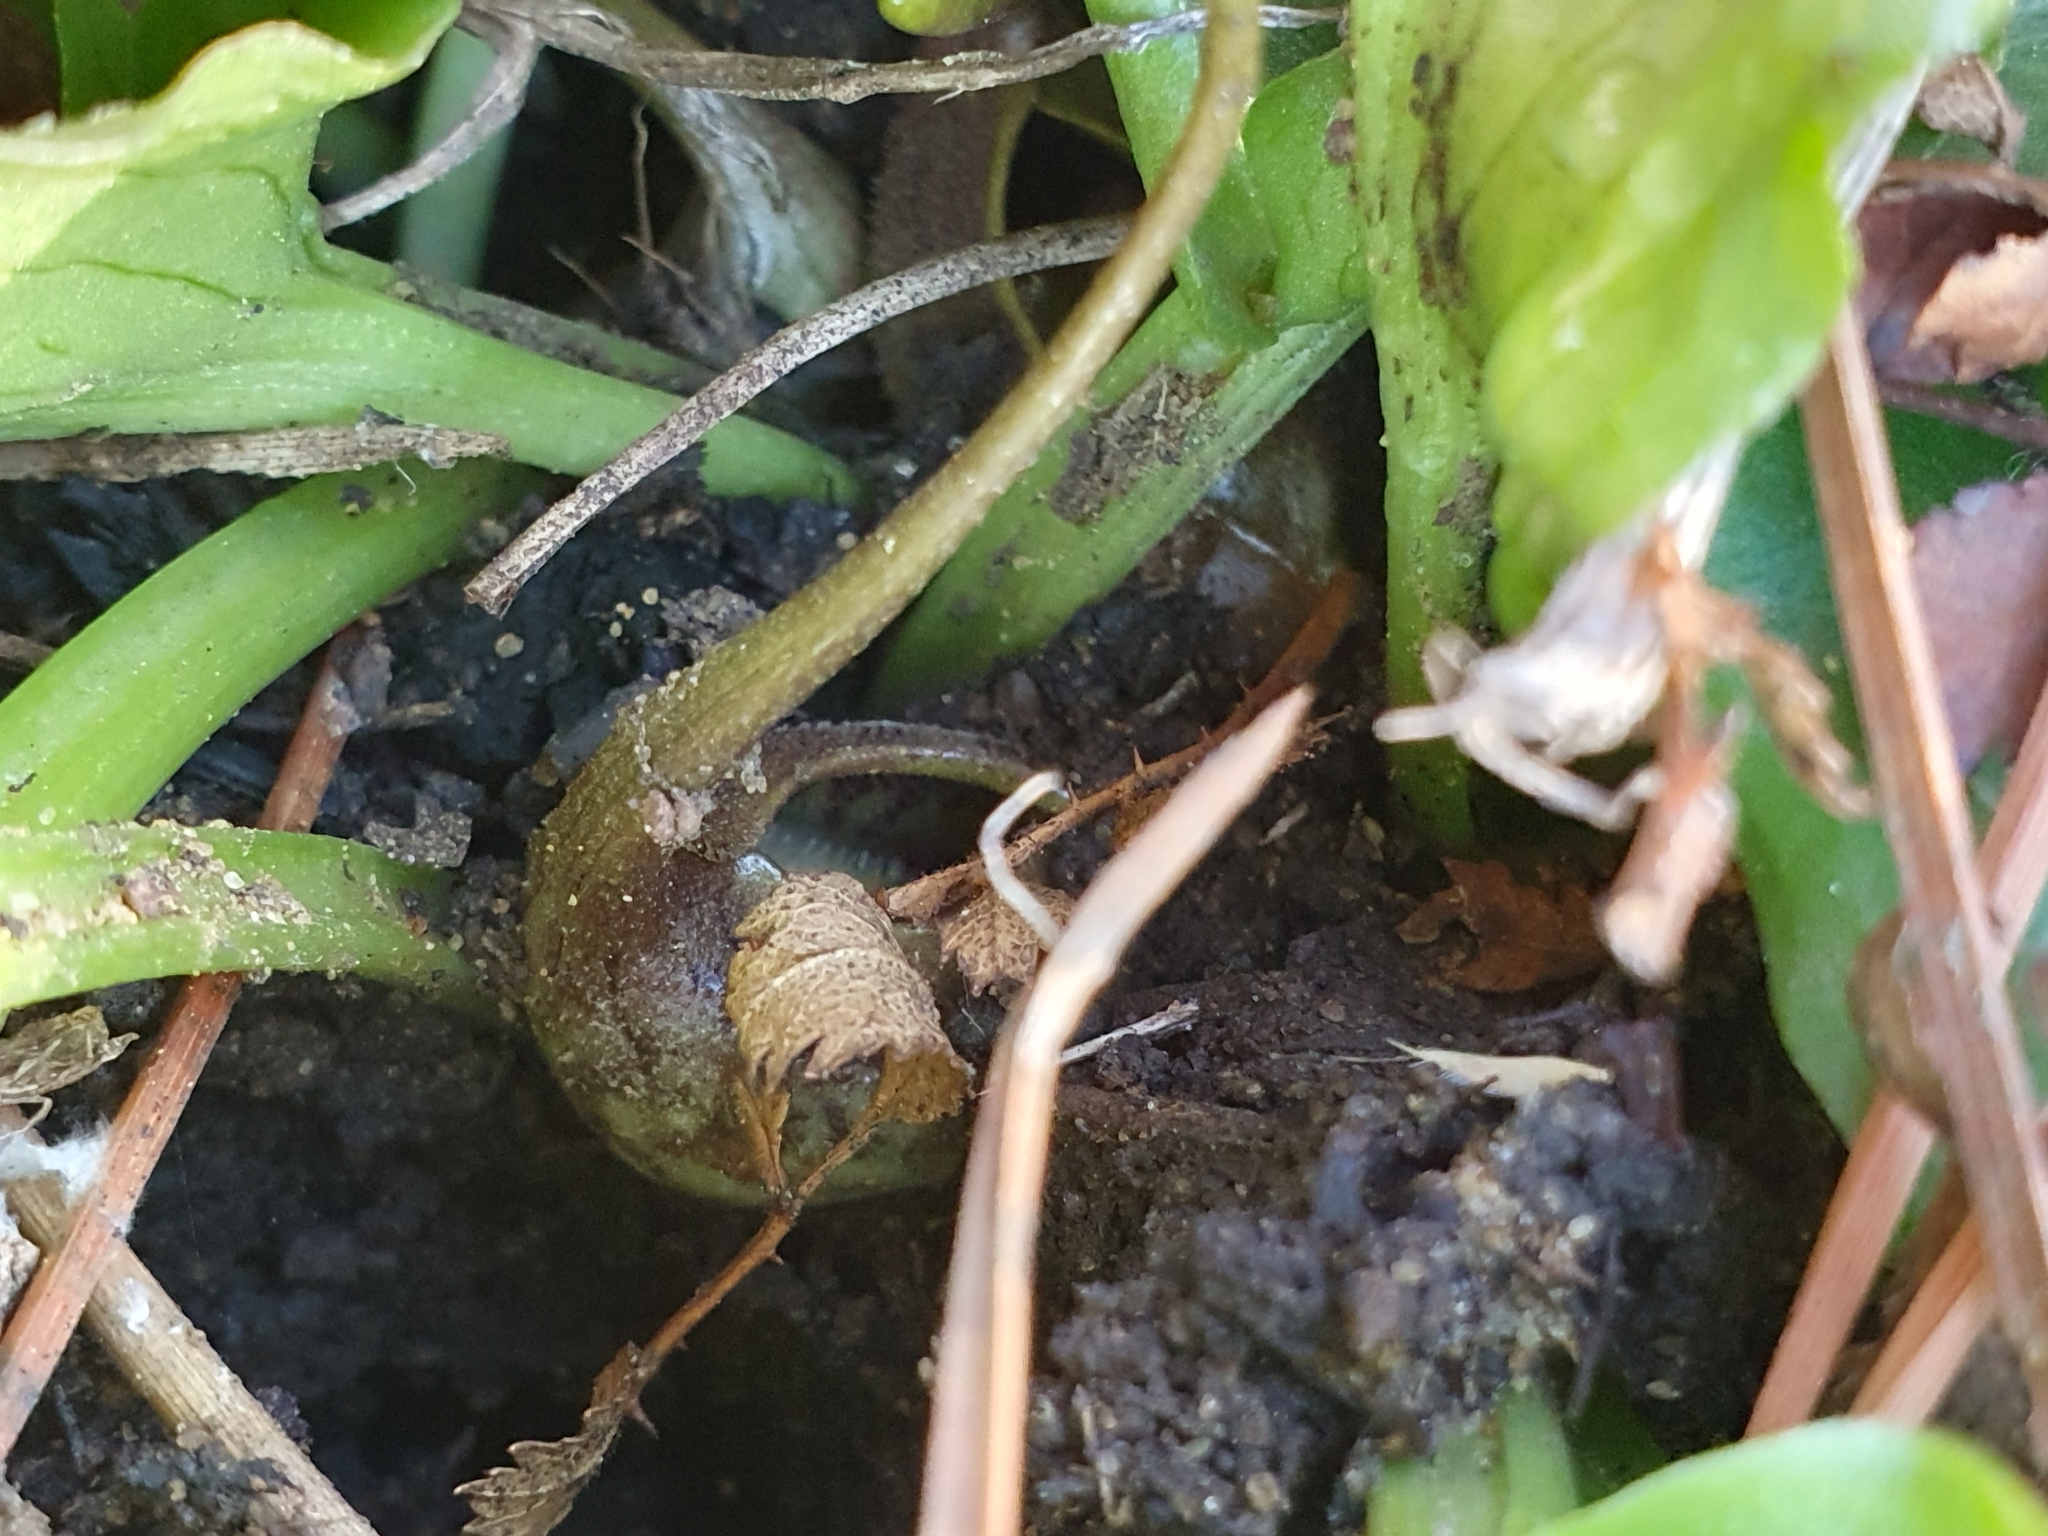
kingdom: Plantae
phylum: Tracheophyta
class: Liliopsida
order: Alismatales
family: Araceae
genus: Ambrosina
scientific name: Ambrosina bassii
